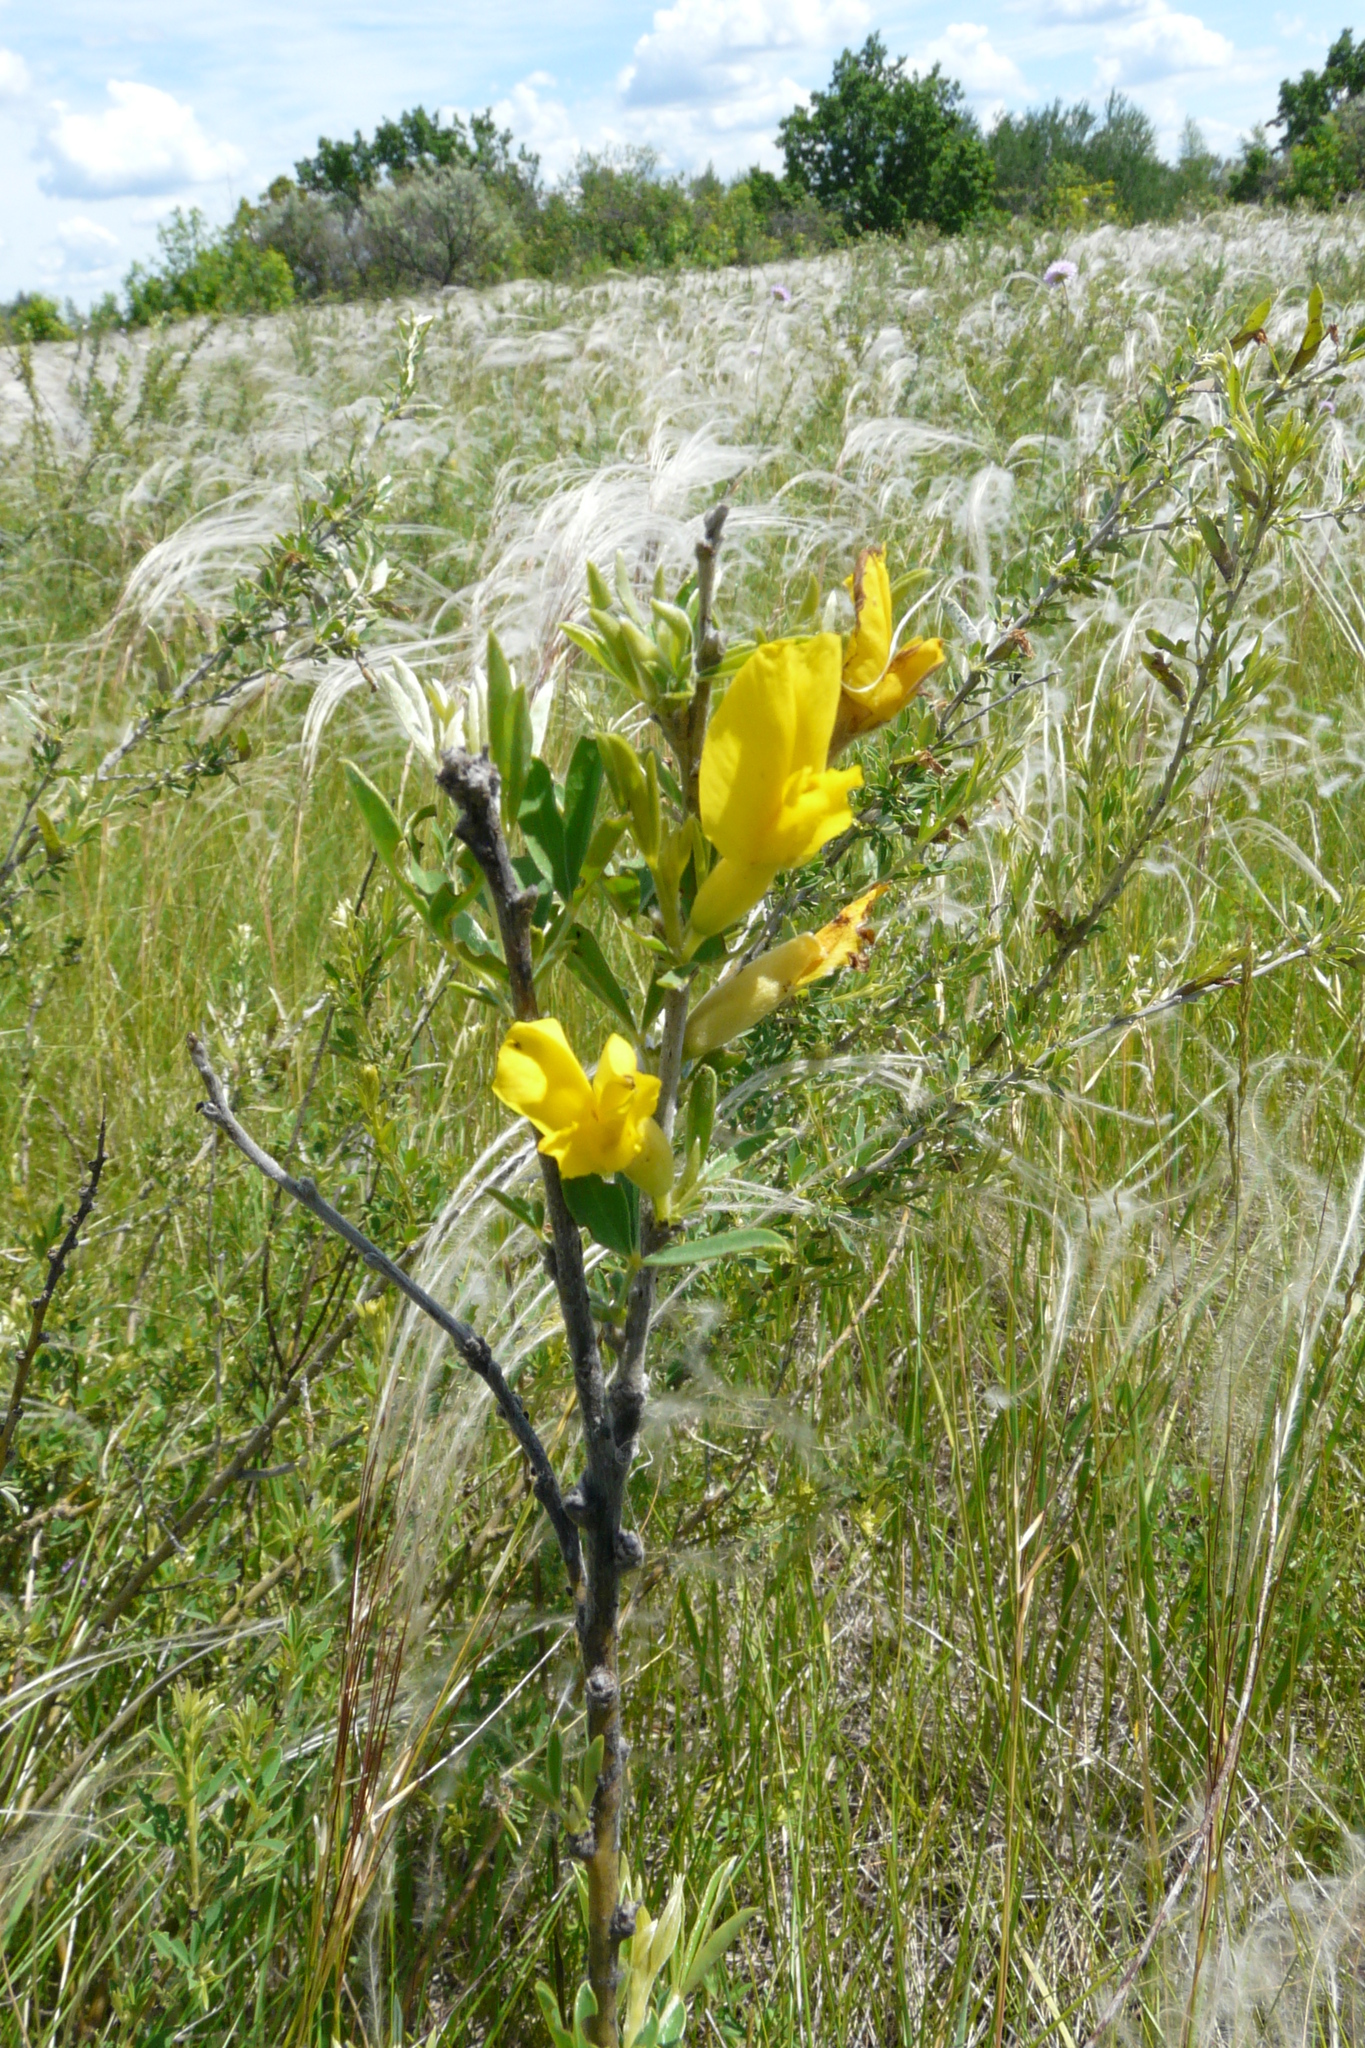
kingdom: Plantae
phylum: Tracheophyta
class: Magnoliopsida
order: Fabales
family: Fabaceae
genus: Chamaecytisus
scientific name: Chamaecytisus ruthenicus
